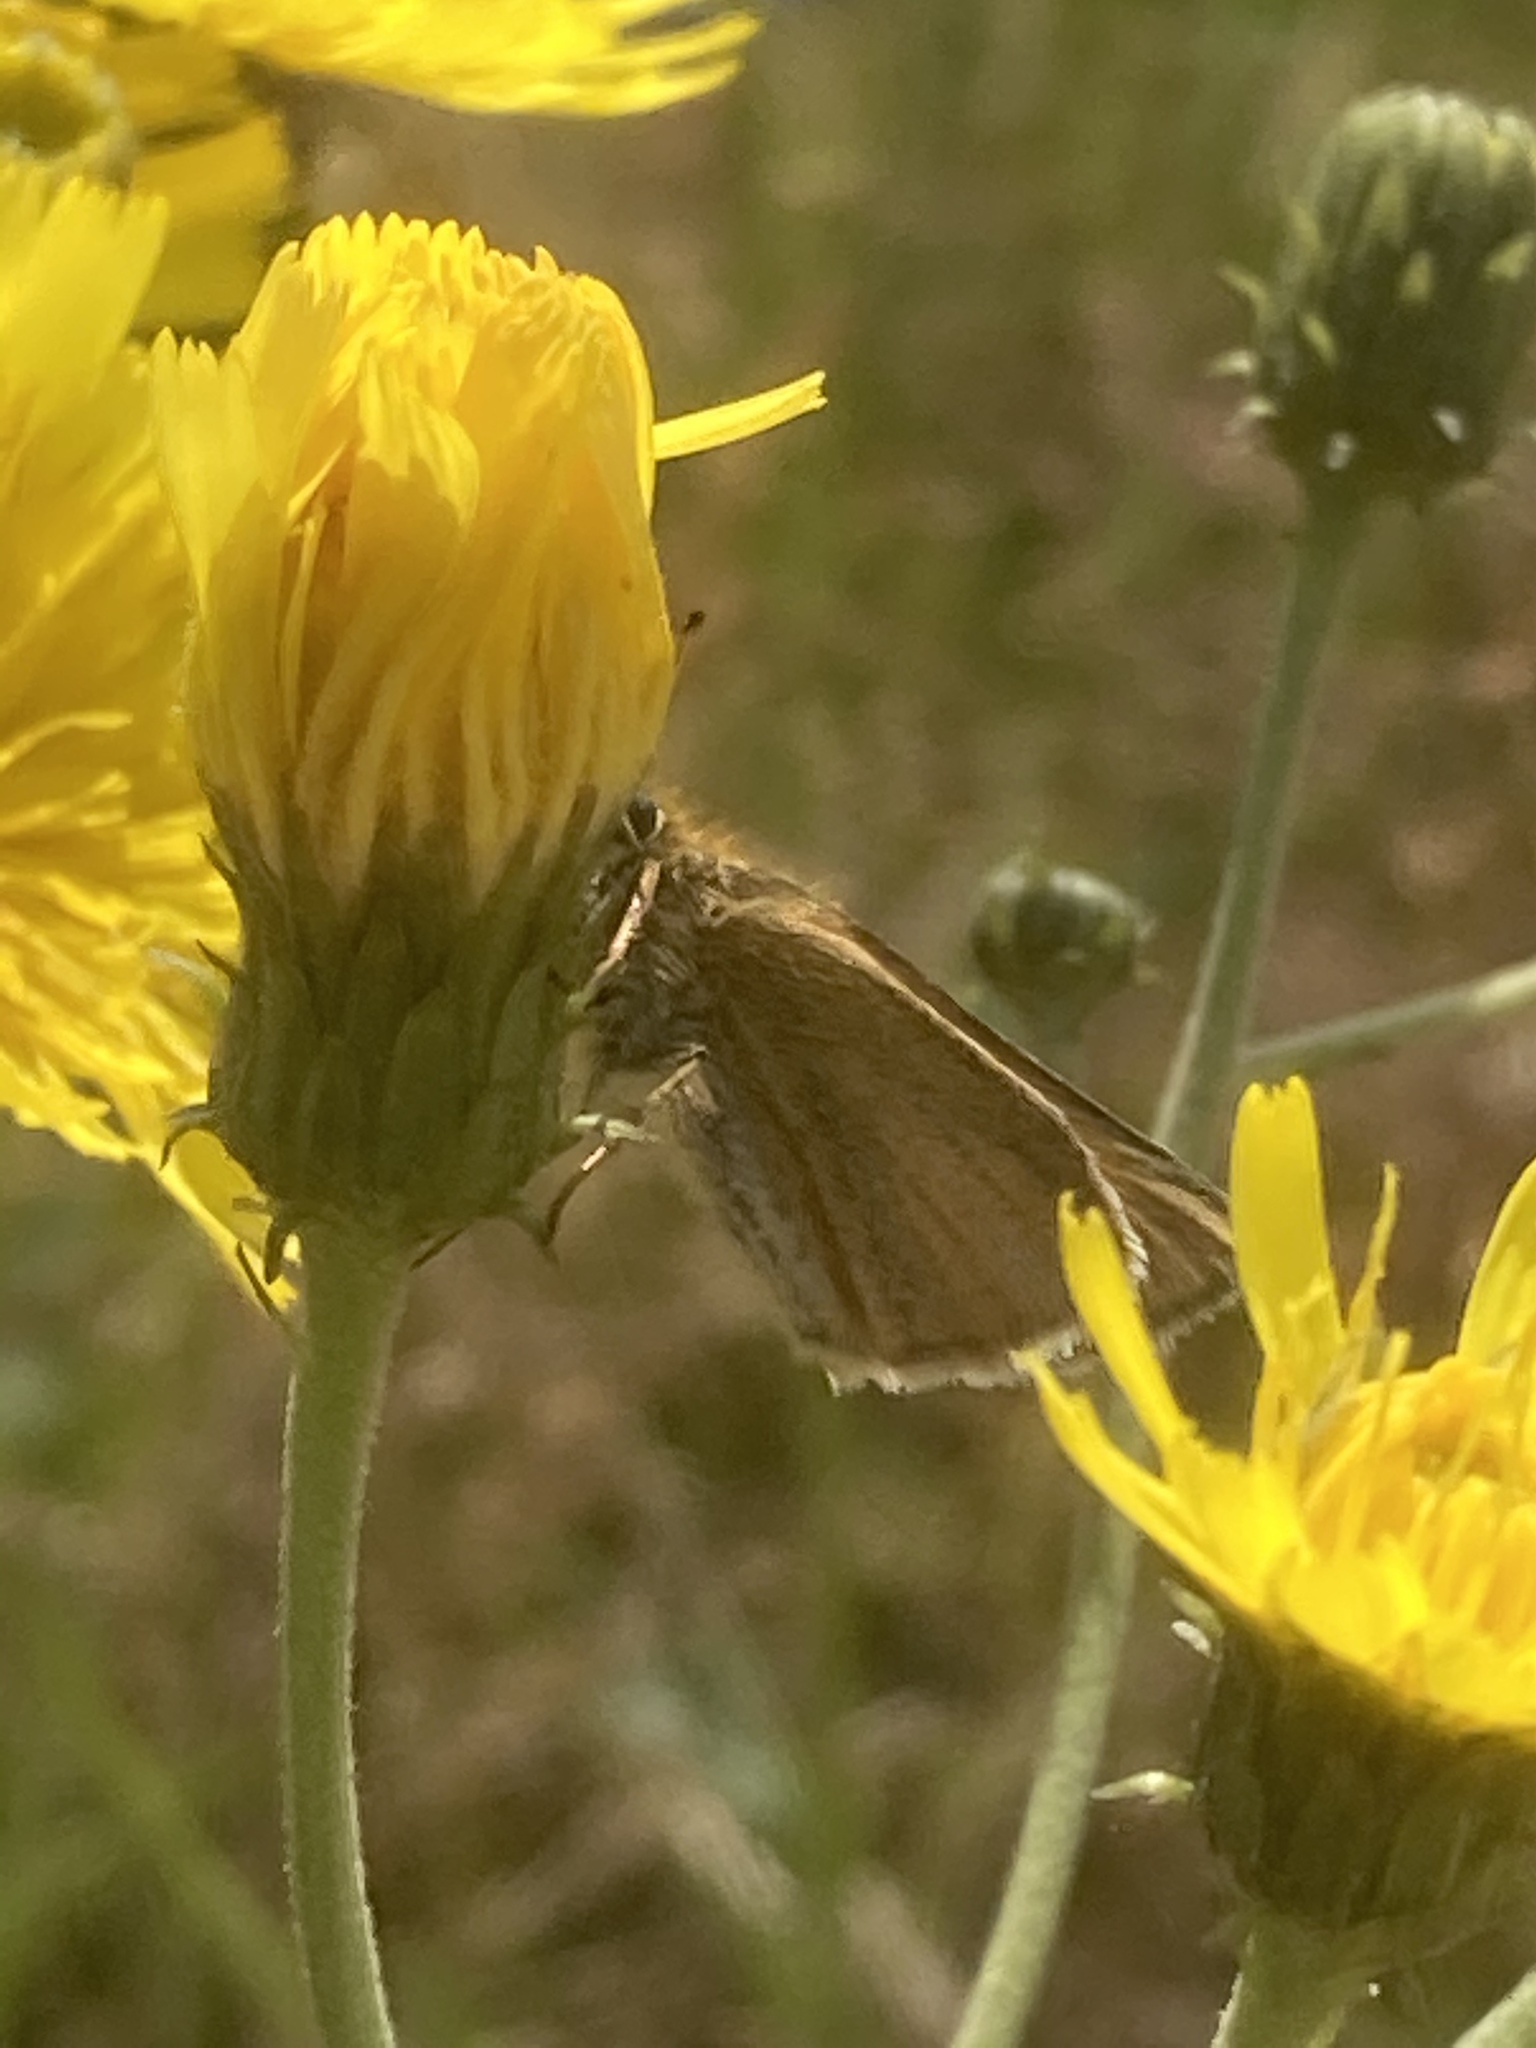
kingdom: Animalia
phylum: Arthropoda
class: Insecta
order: Lepidoptera
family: Hesperiidae
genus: Thymelicus
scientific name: Thymelicus lineola
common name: Essex skipper
